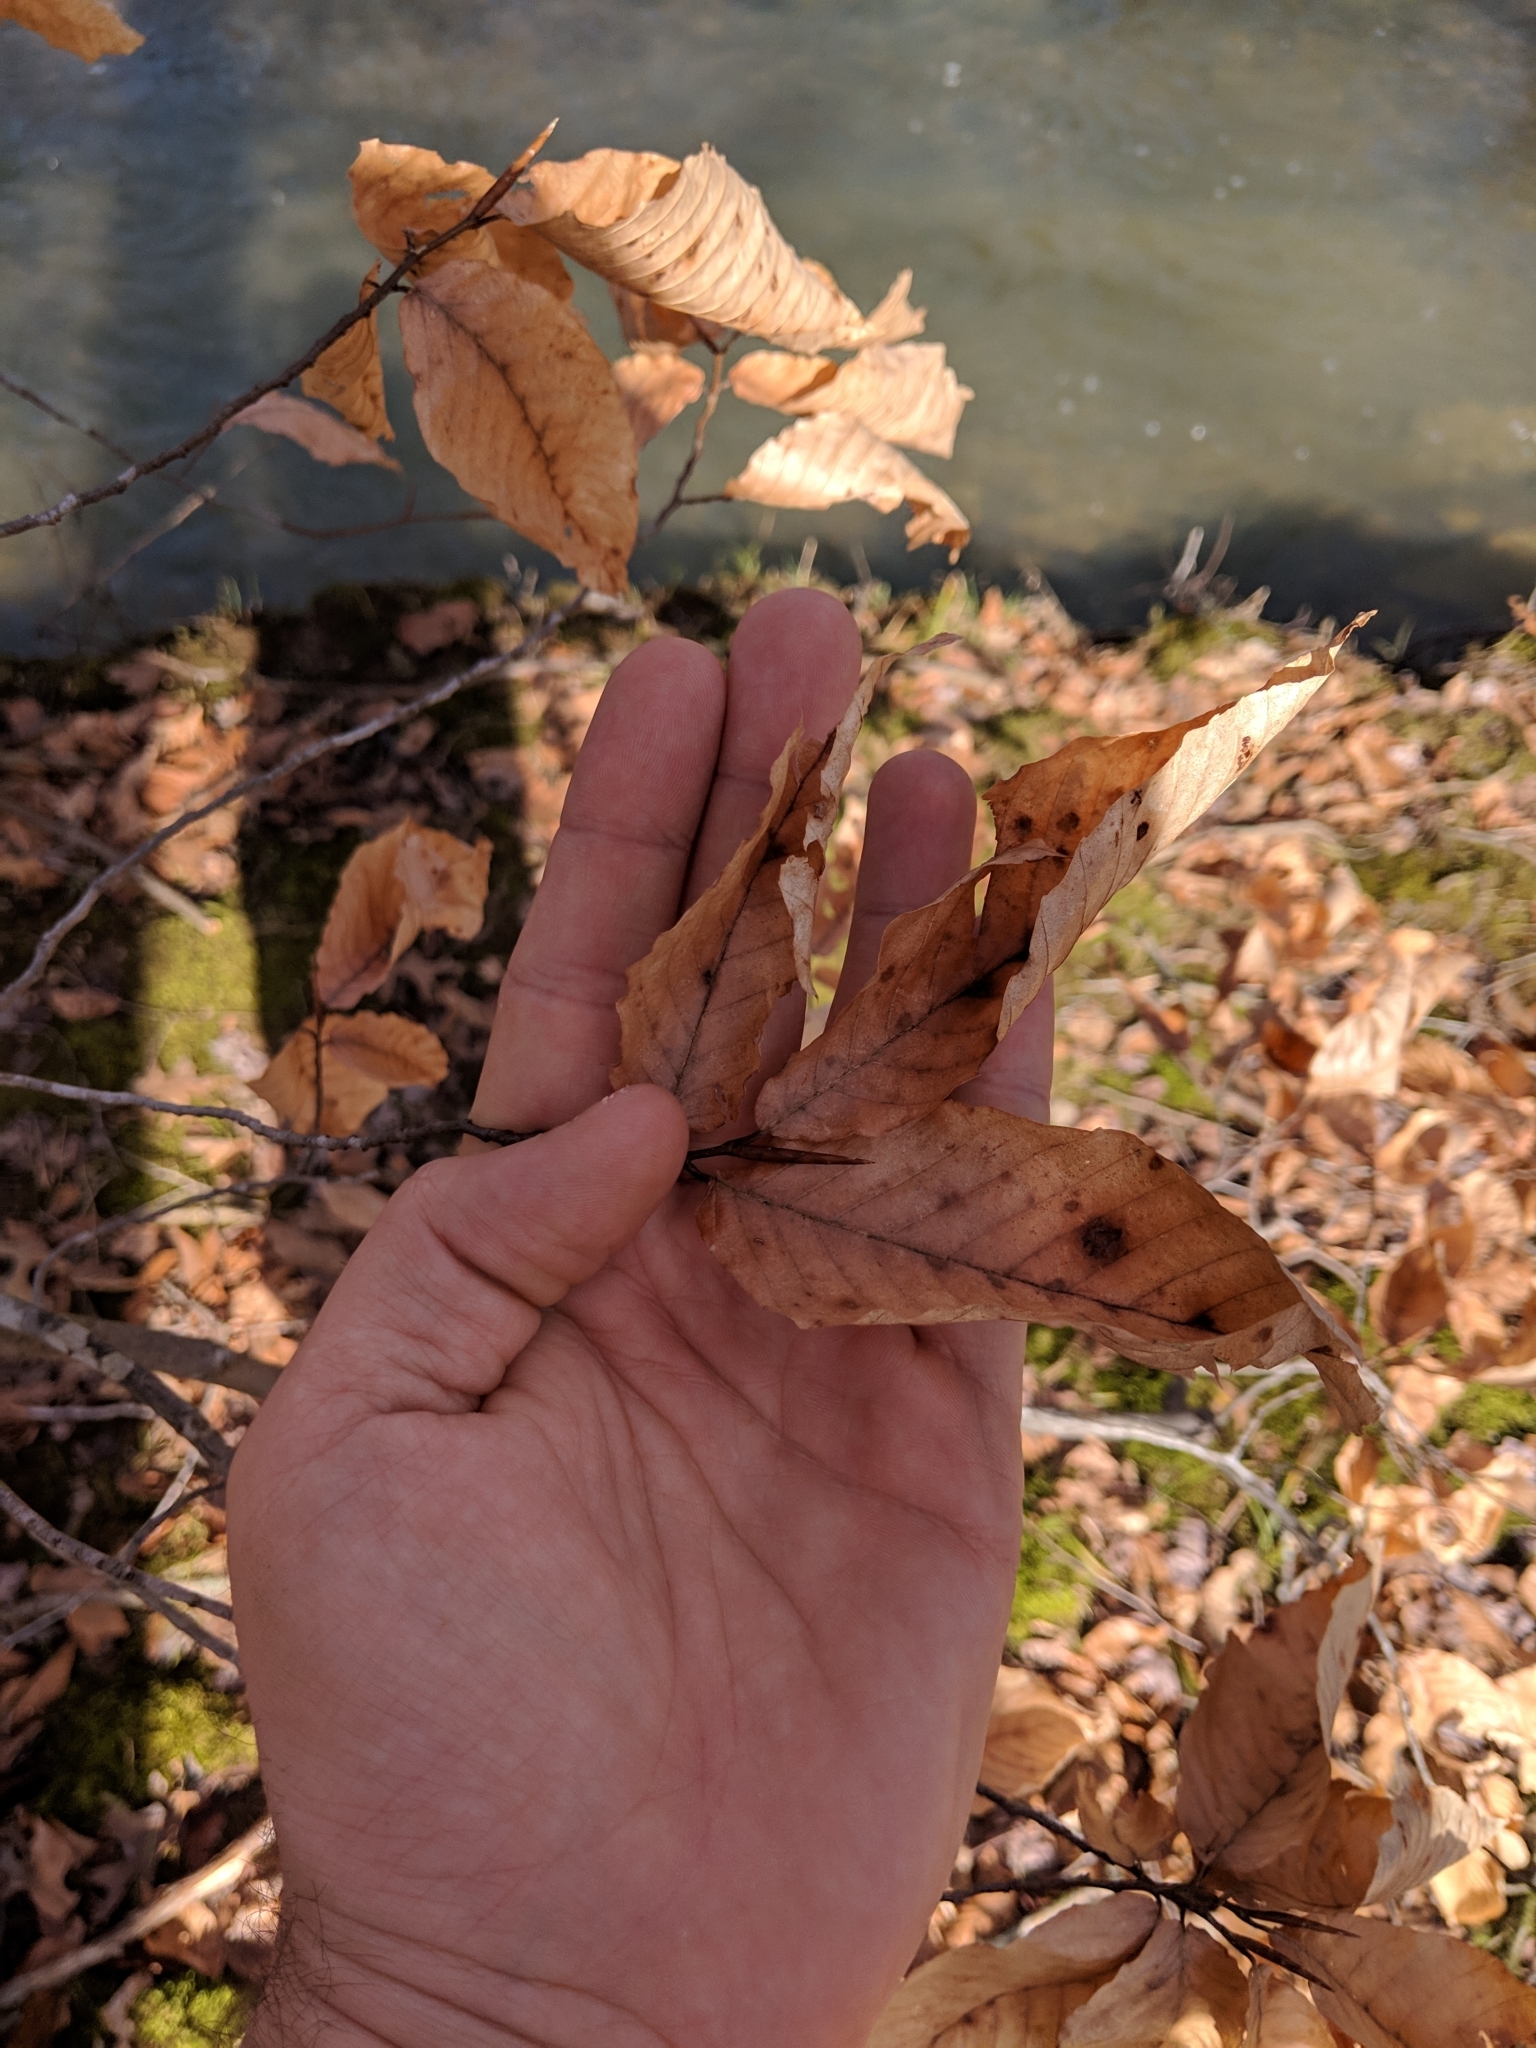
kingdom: Plantae
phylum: Tracheophyta
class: Magnoliopsida
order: Fagales
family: Fagaceae
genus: Fagus
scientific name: Fagus grandifolia
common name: American beech
